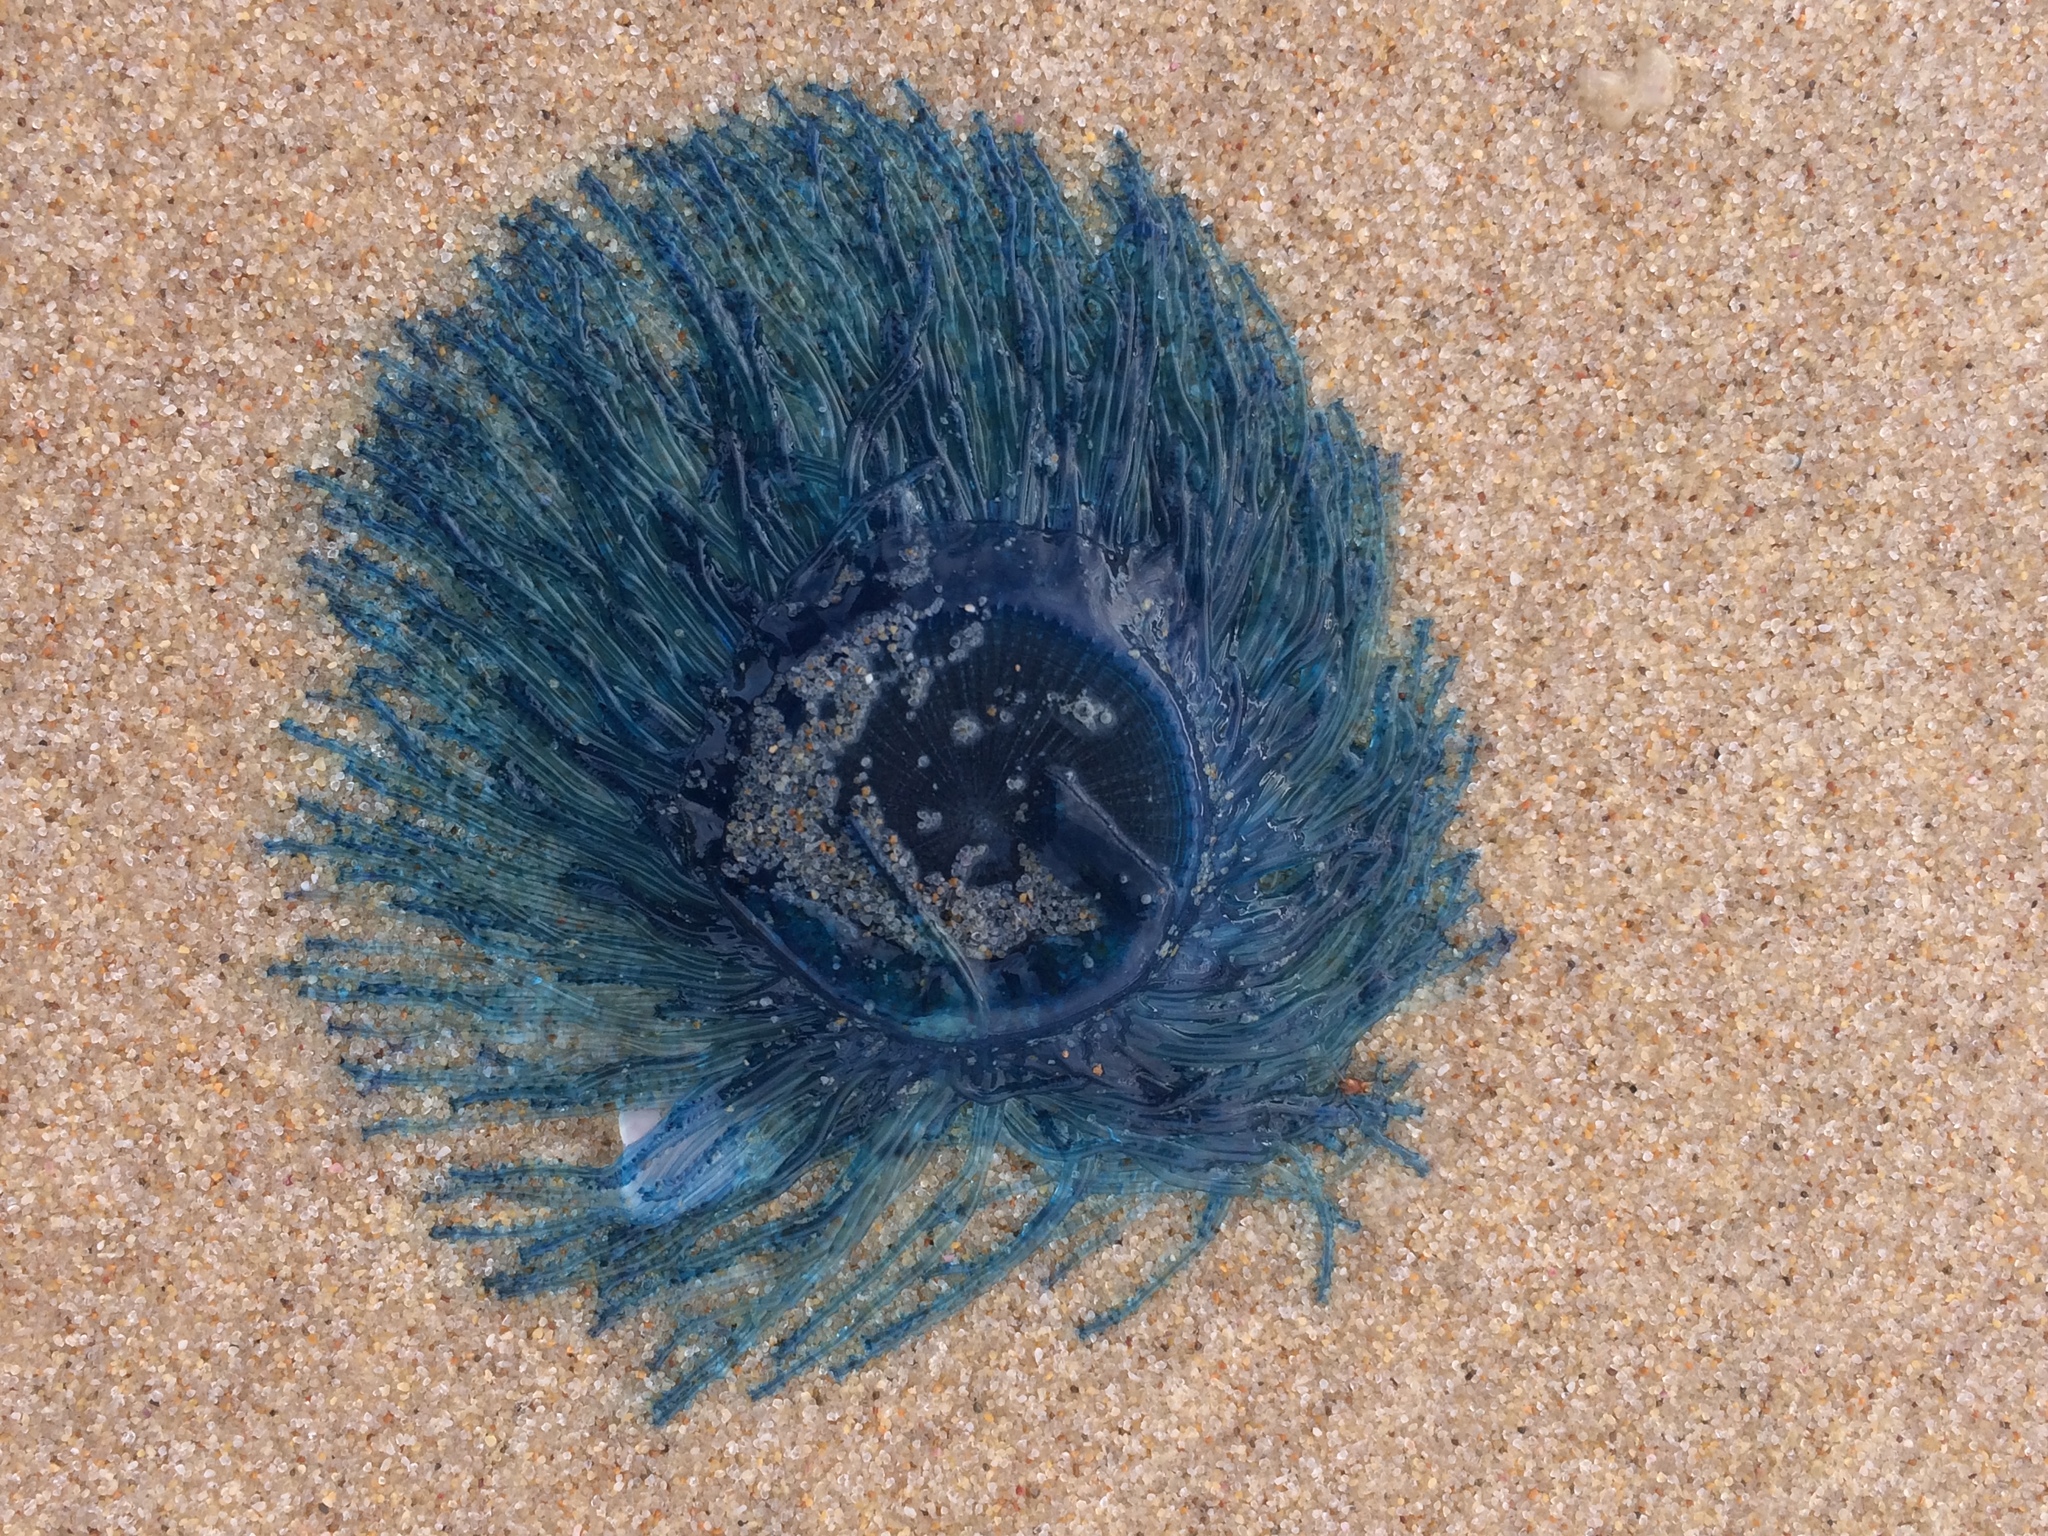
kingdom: Animalia
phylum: Cnidaria
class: Hydrozoa
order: Anthoathecata
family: Porpitidae
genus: Porpita
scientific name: Porpita porpita
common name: Blue button
